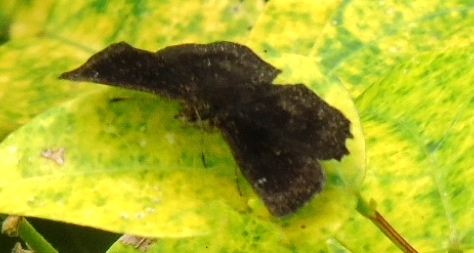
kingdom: Animalia
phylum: Arthropoda
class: Insecta
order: Lepidoptera
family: Hesperiidae
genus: Staphylus
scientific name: Staphylus
